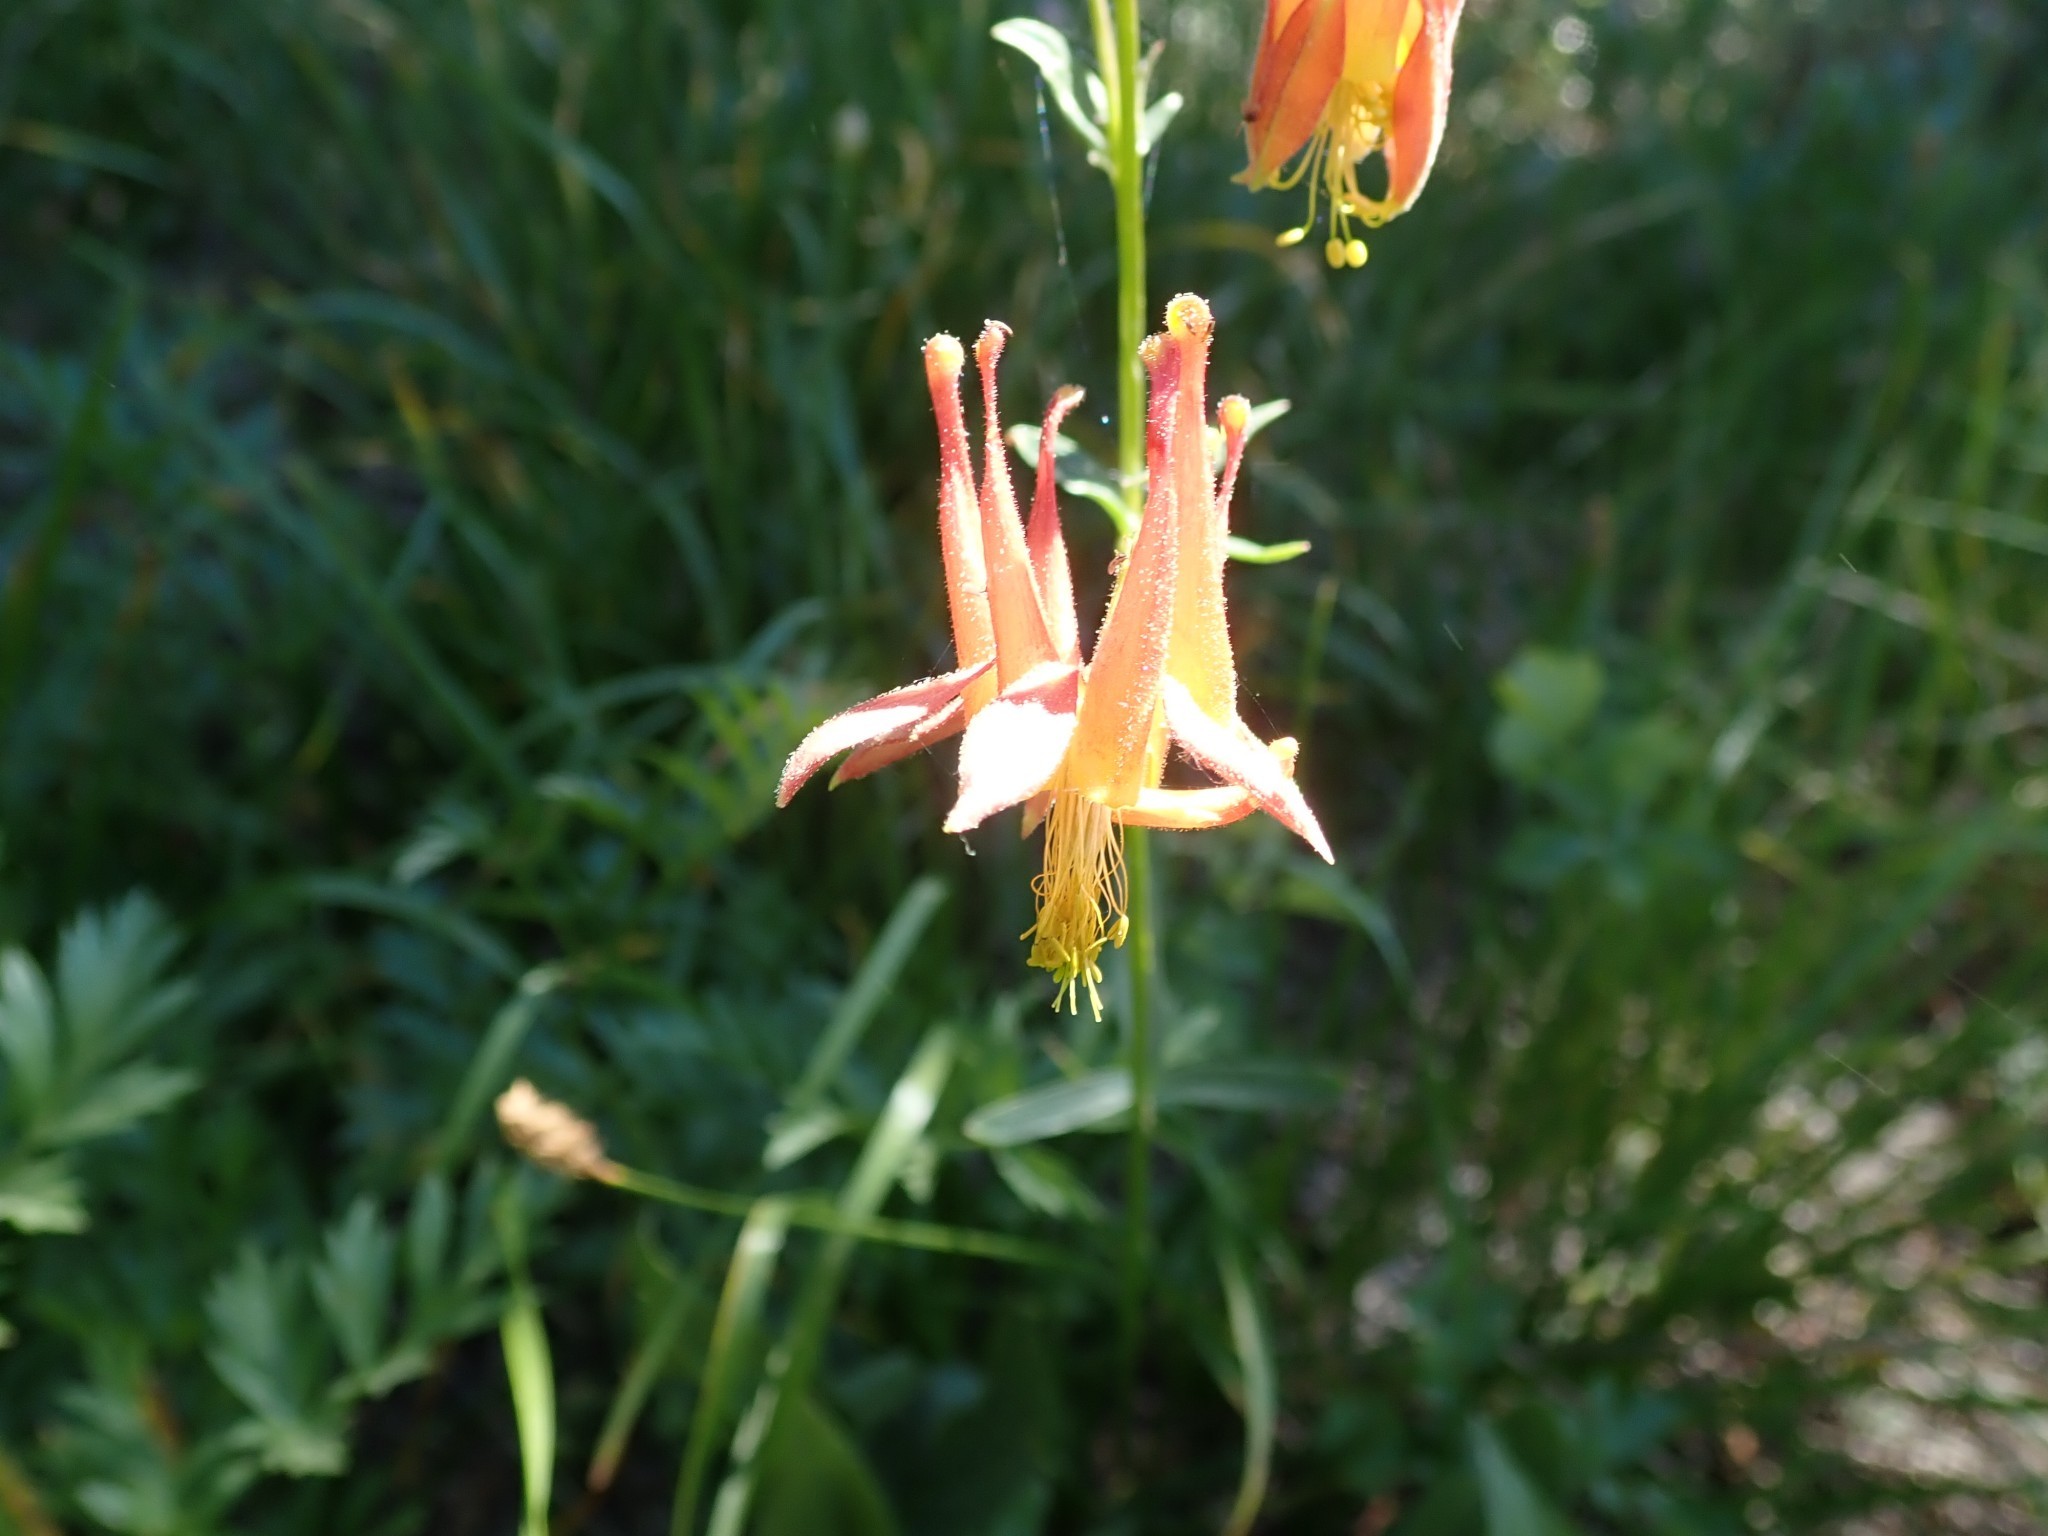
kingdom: Plantae
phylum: Tracheophyta
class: Magnoliopsida
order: Ranunculales
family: Ranunculaceae
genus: Aquilegia
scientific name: Aquilegia formosa
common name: Sitka columbine
